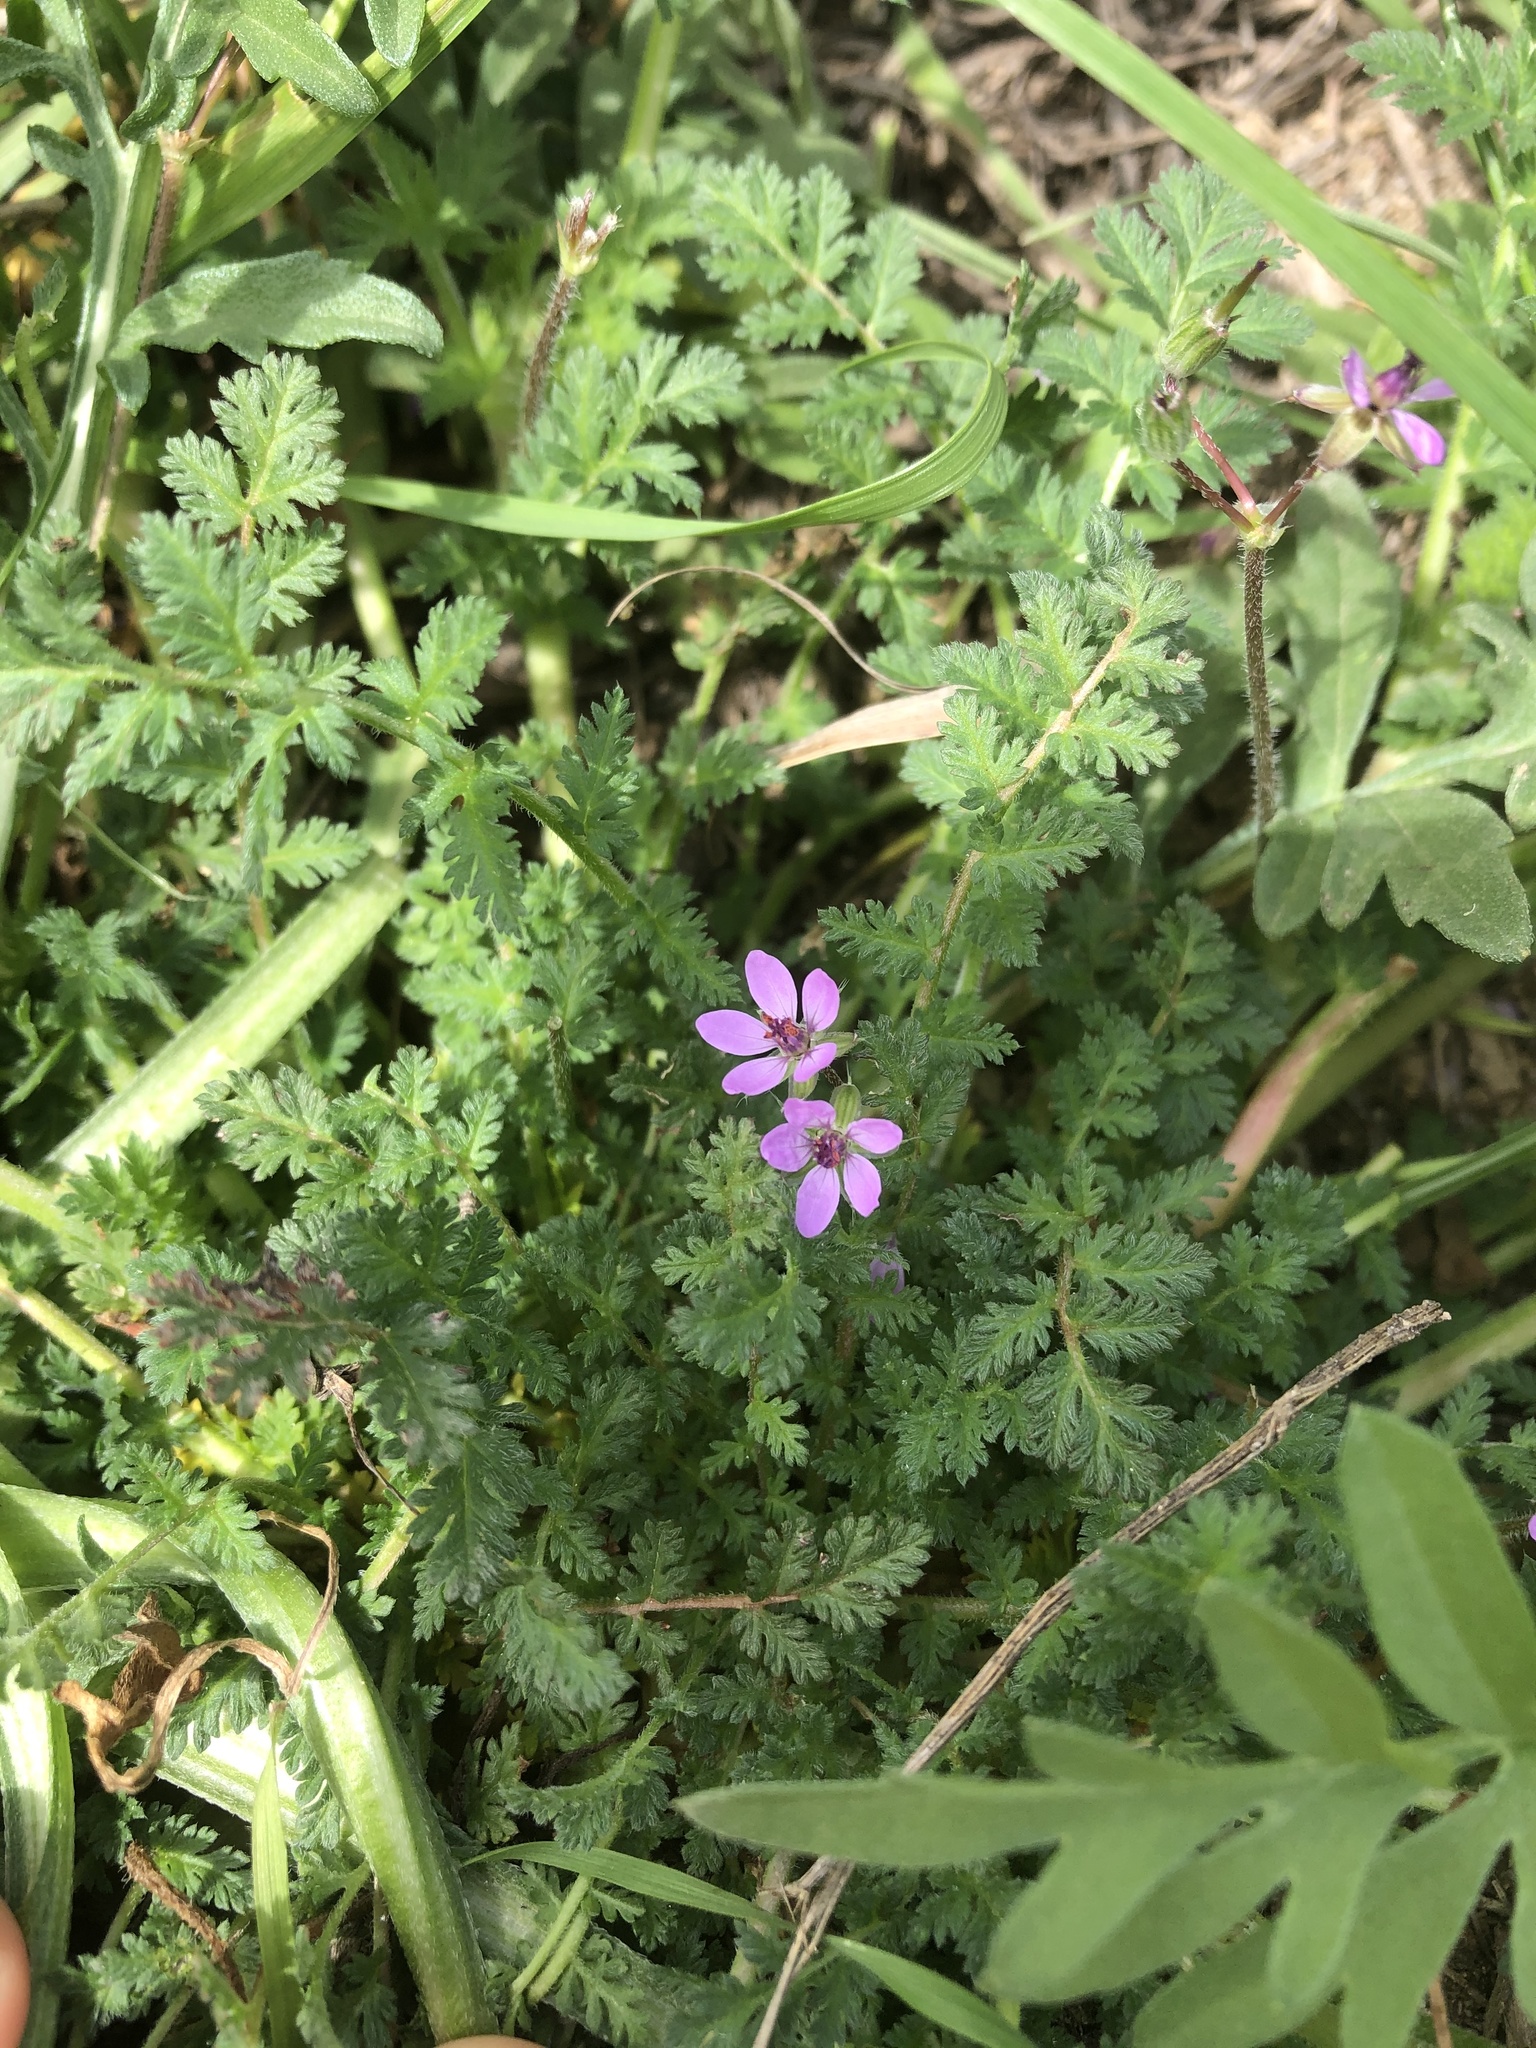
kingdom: Plantae
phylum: Tracheophyta
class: Magnoliopsida
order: Geraniales
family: Geraniaceae
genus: Erodium
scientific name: Erodium cicutarium
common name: Common stork's-bill
